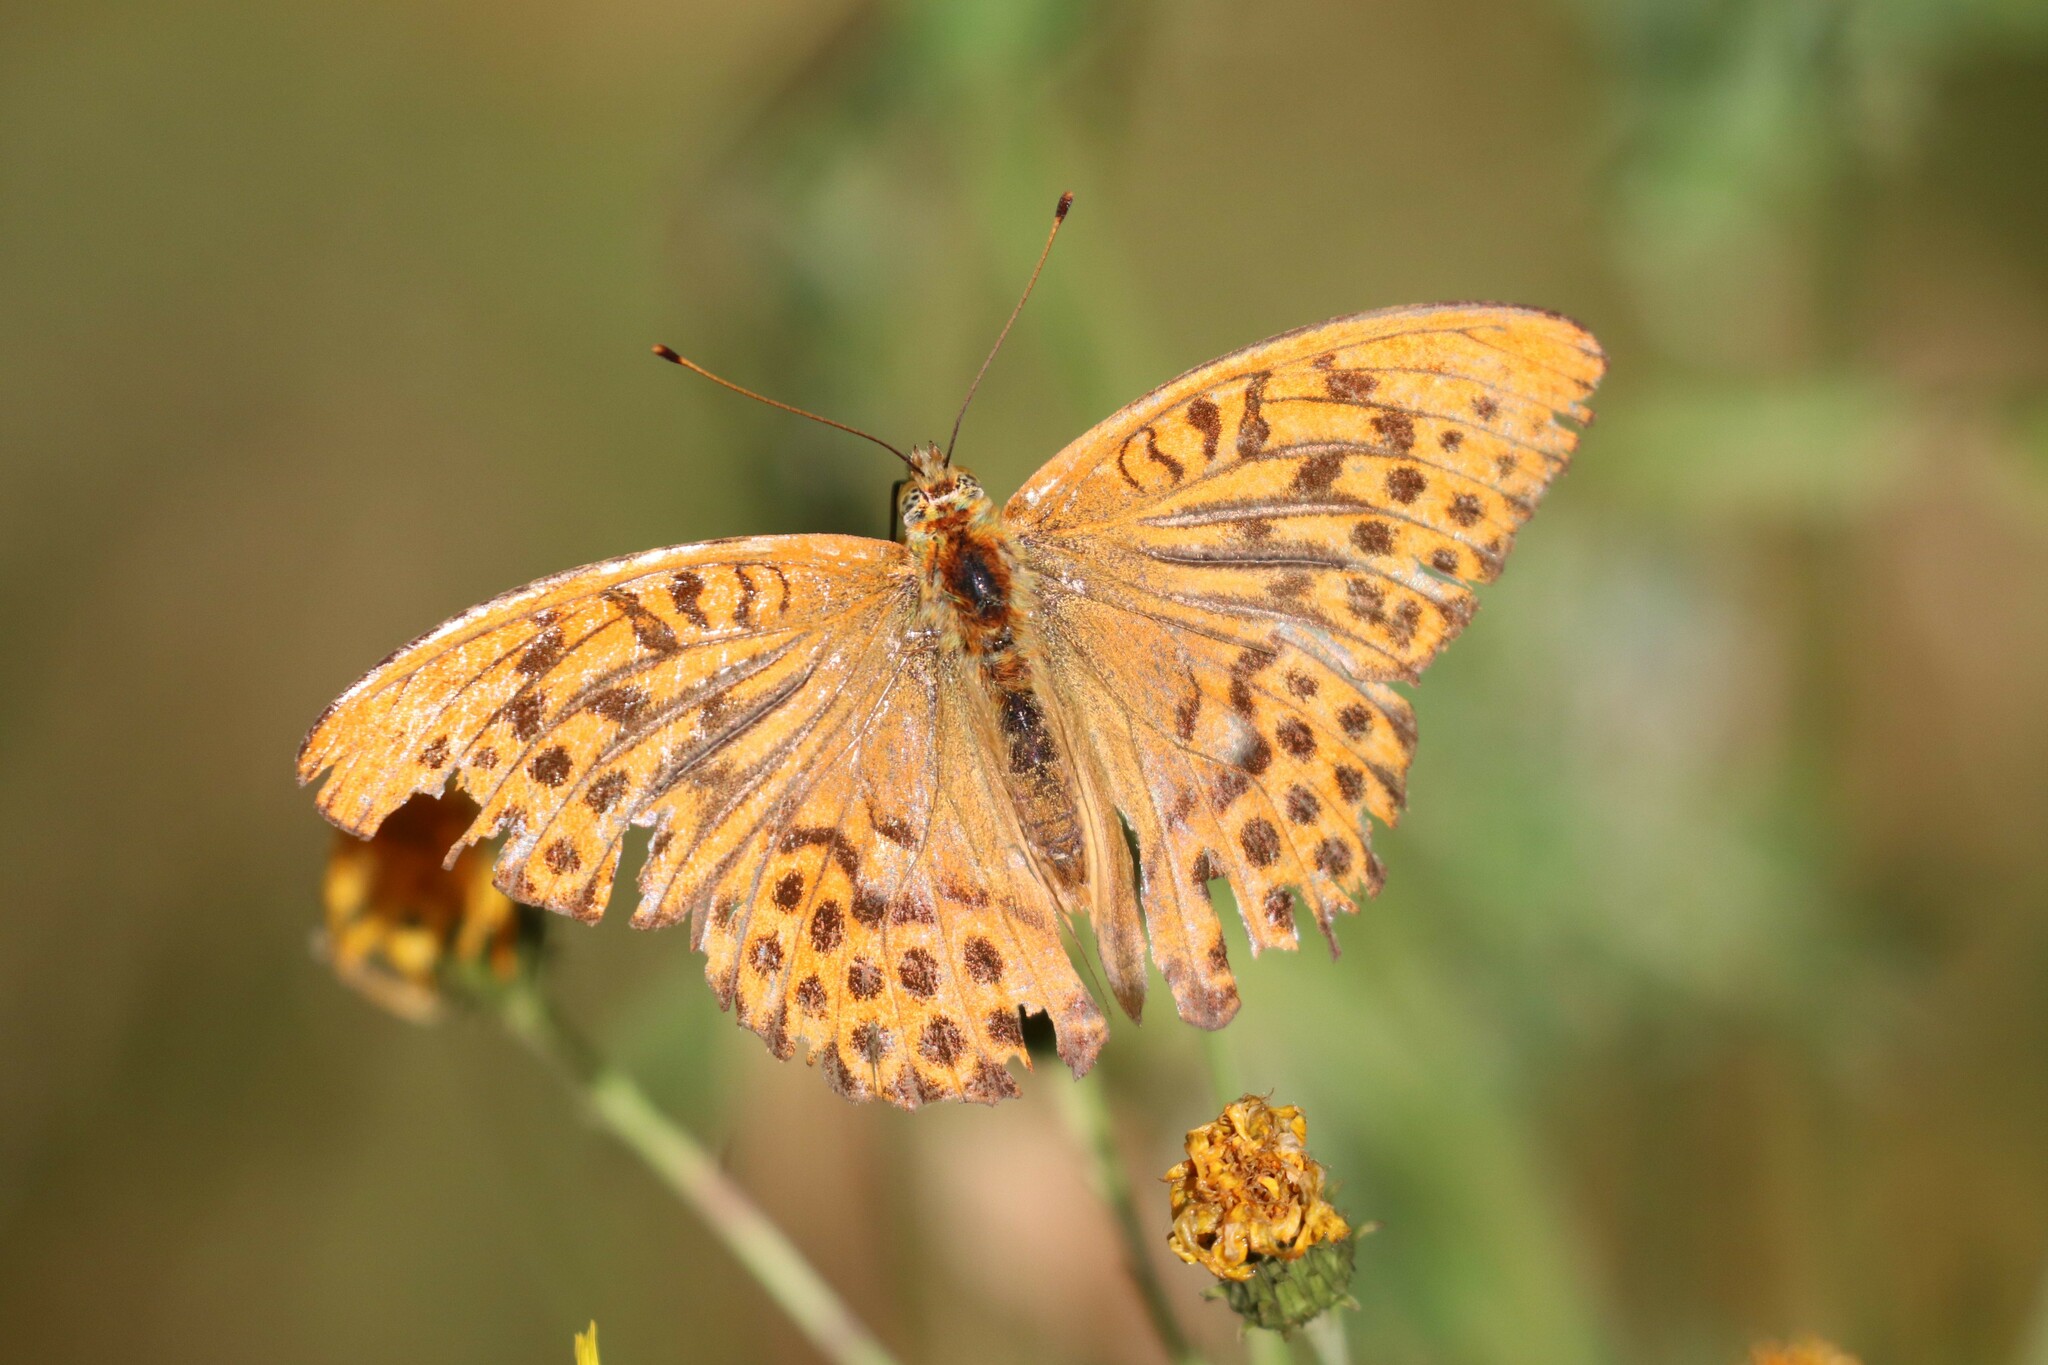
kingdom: Animalia
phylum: Arthropoda
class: Insecta
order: Lepidoptera
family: Nymphalidae
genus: Argynnis
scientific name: Argynnis paphia
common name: Silver-washed fritillary
